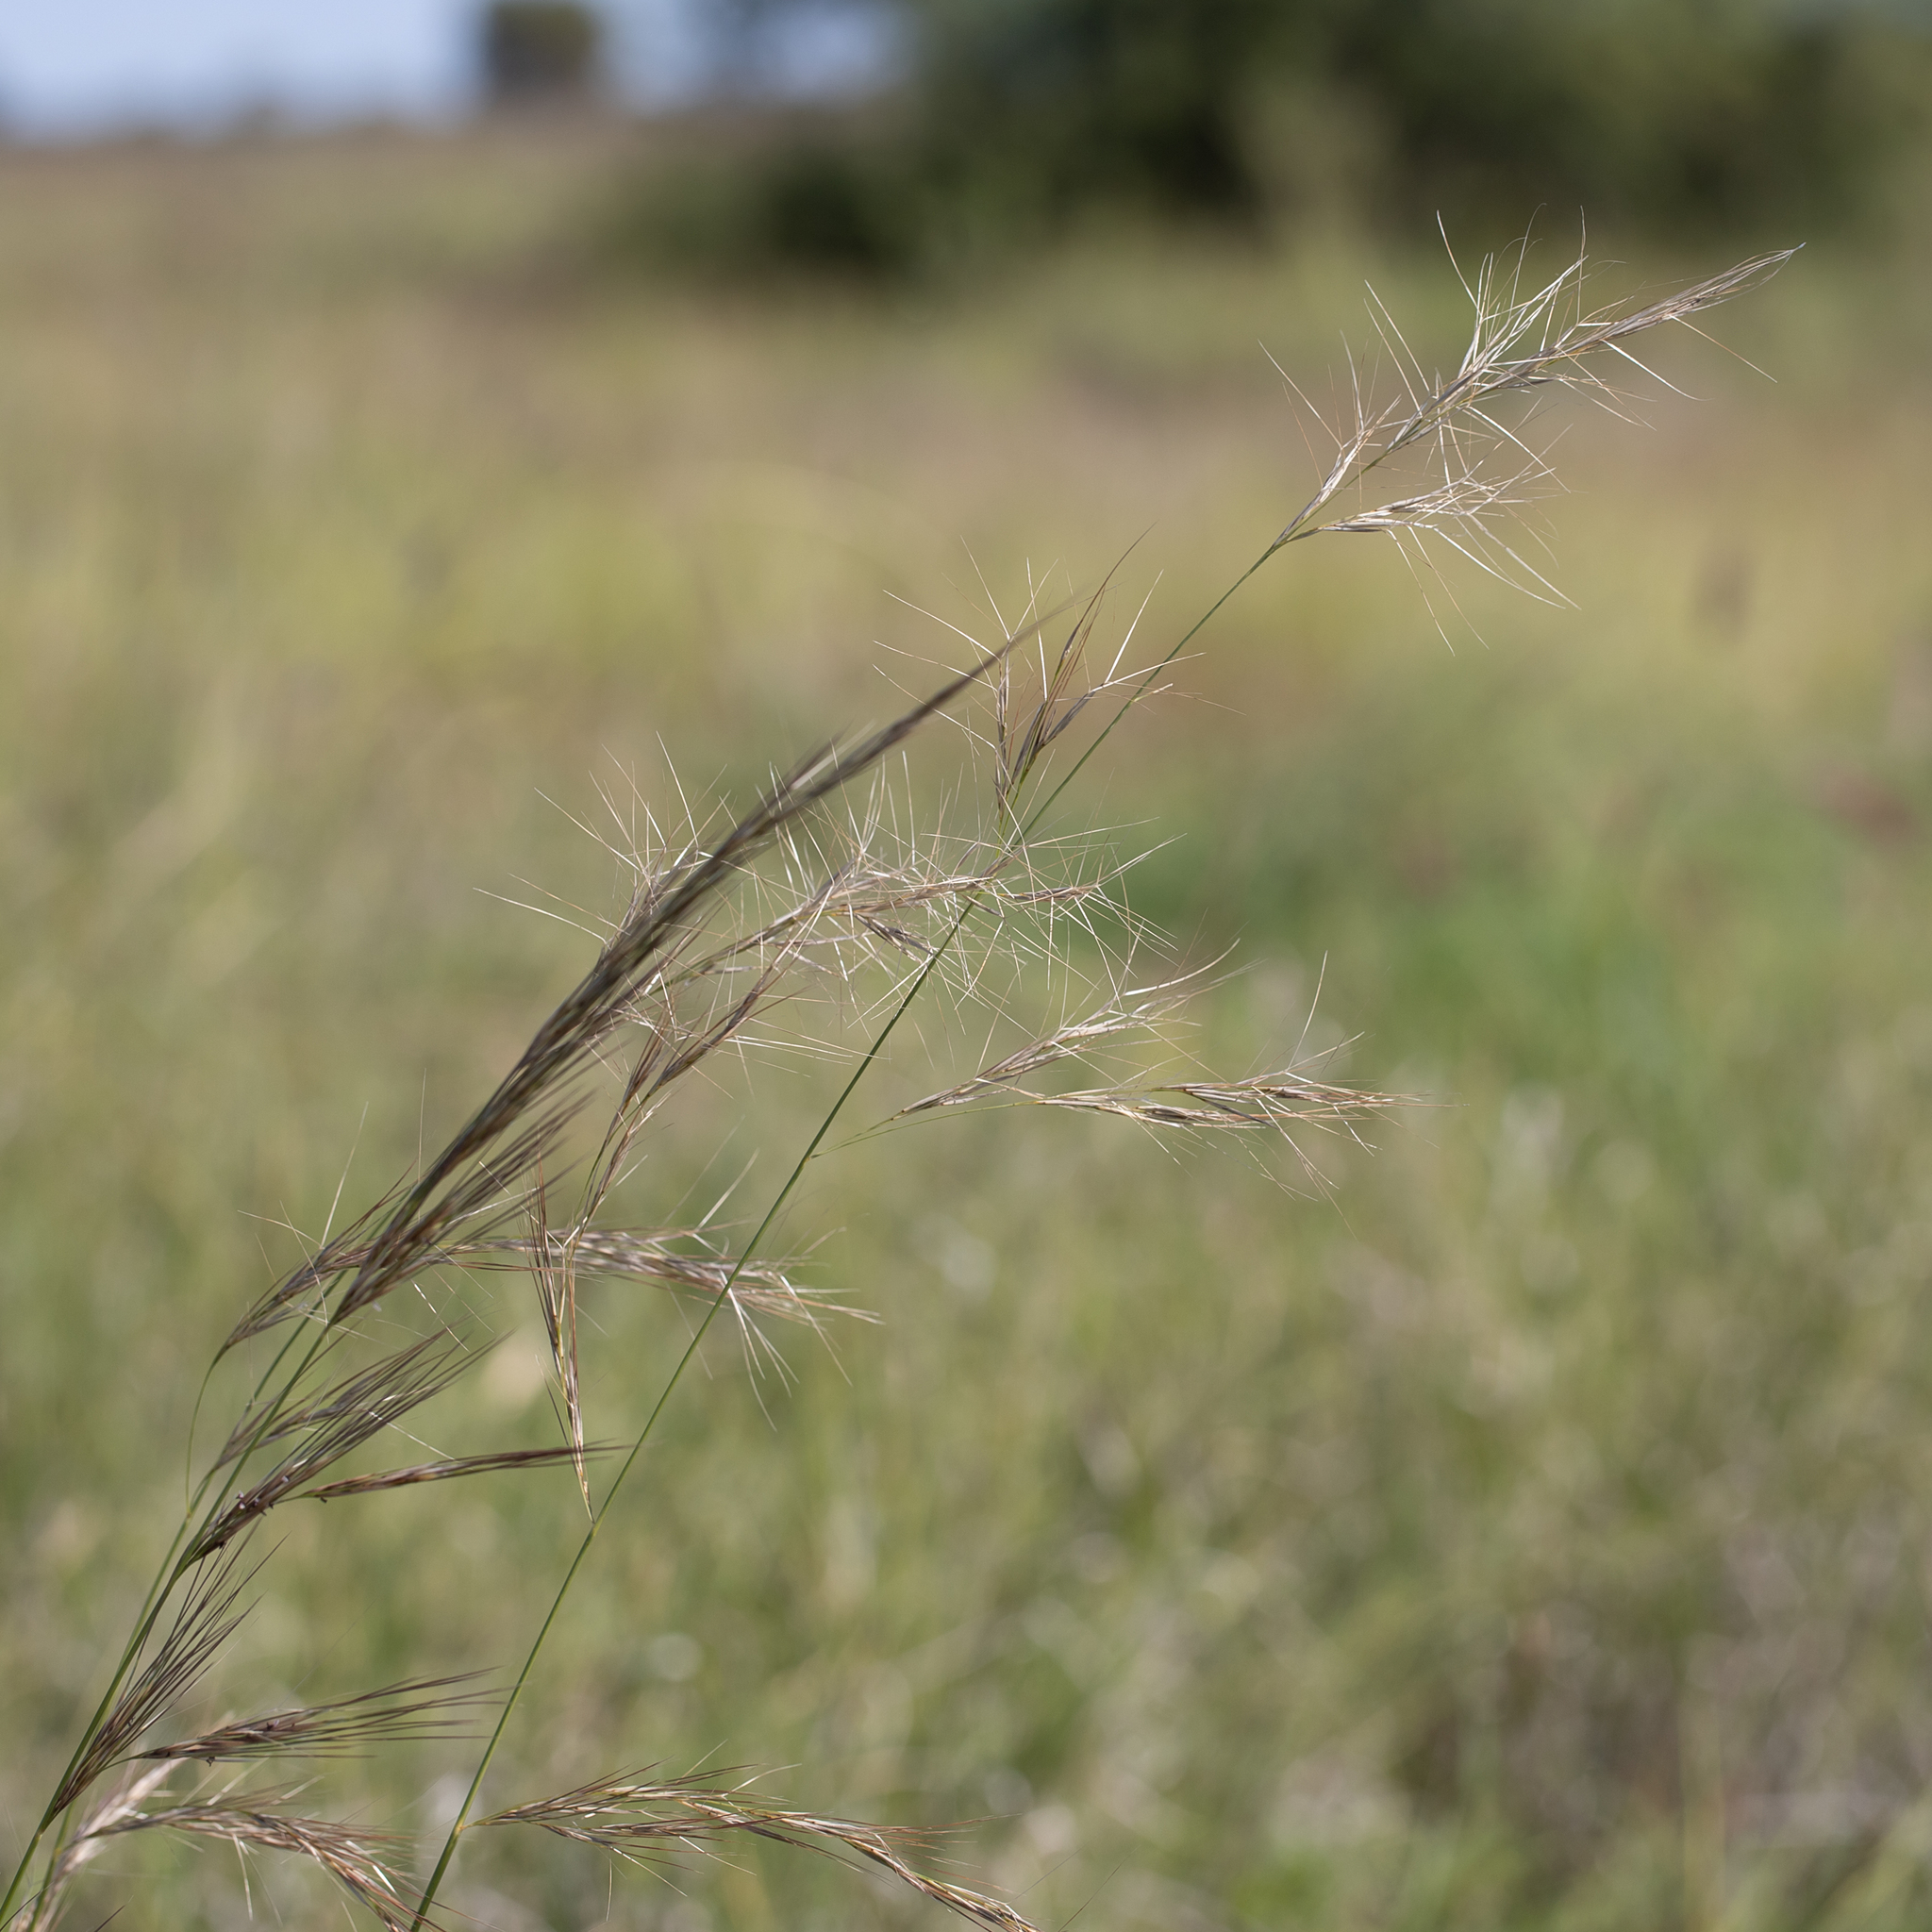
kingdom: Plantae
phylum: Tracheophyta
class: Liliopsida
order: Poales
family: Poaceae
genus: Aristida
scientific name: Aristida latifolia
